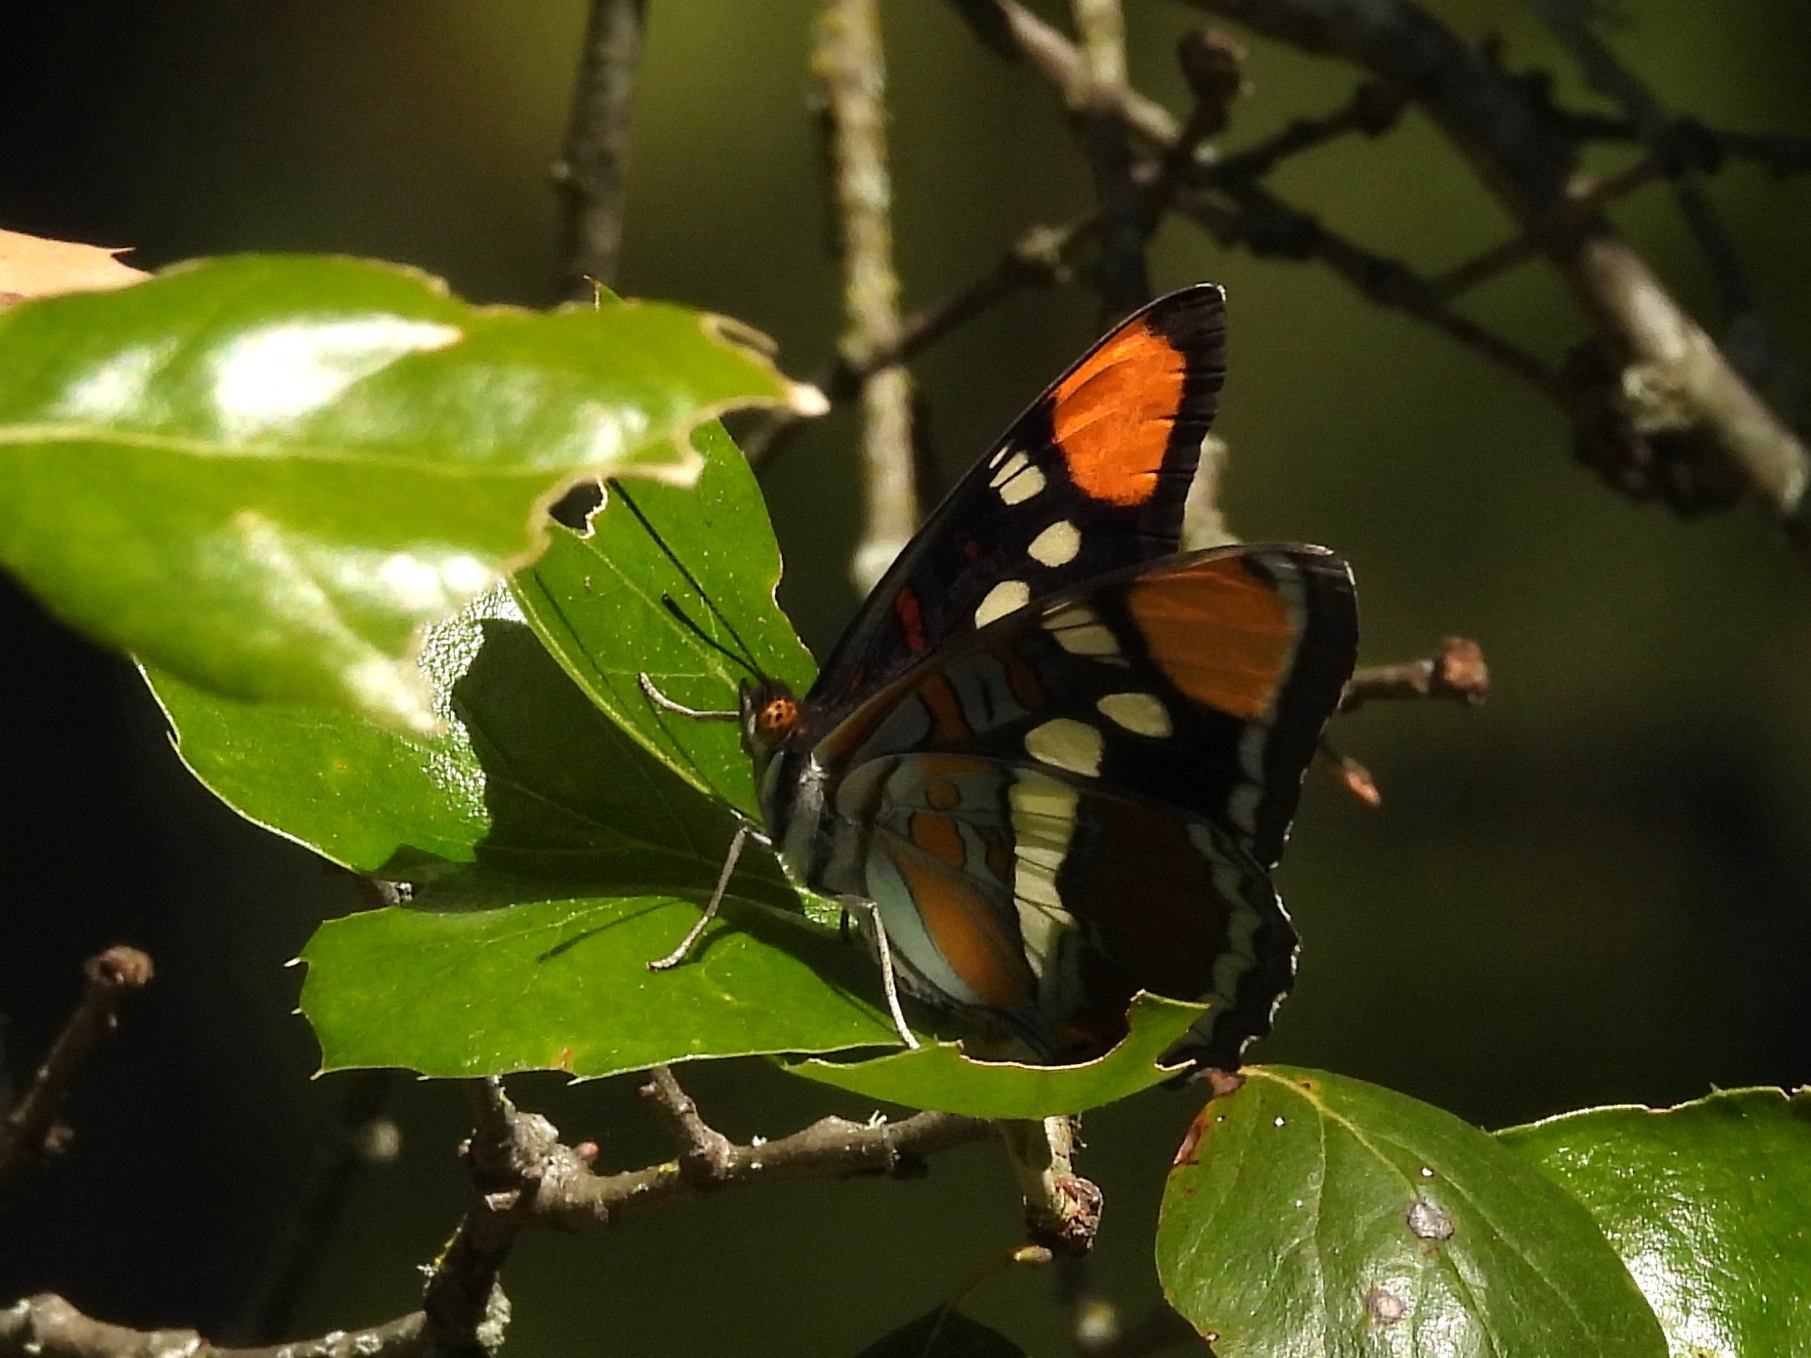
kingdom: Animalia
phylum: Arthropoda
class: Insecta
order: Lepidoptera
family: Nymphalidae
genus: Limenitis
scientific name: Limenitis bredowii
